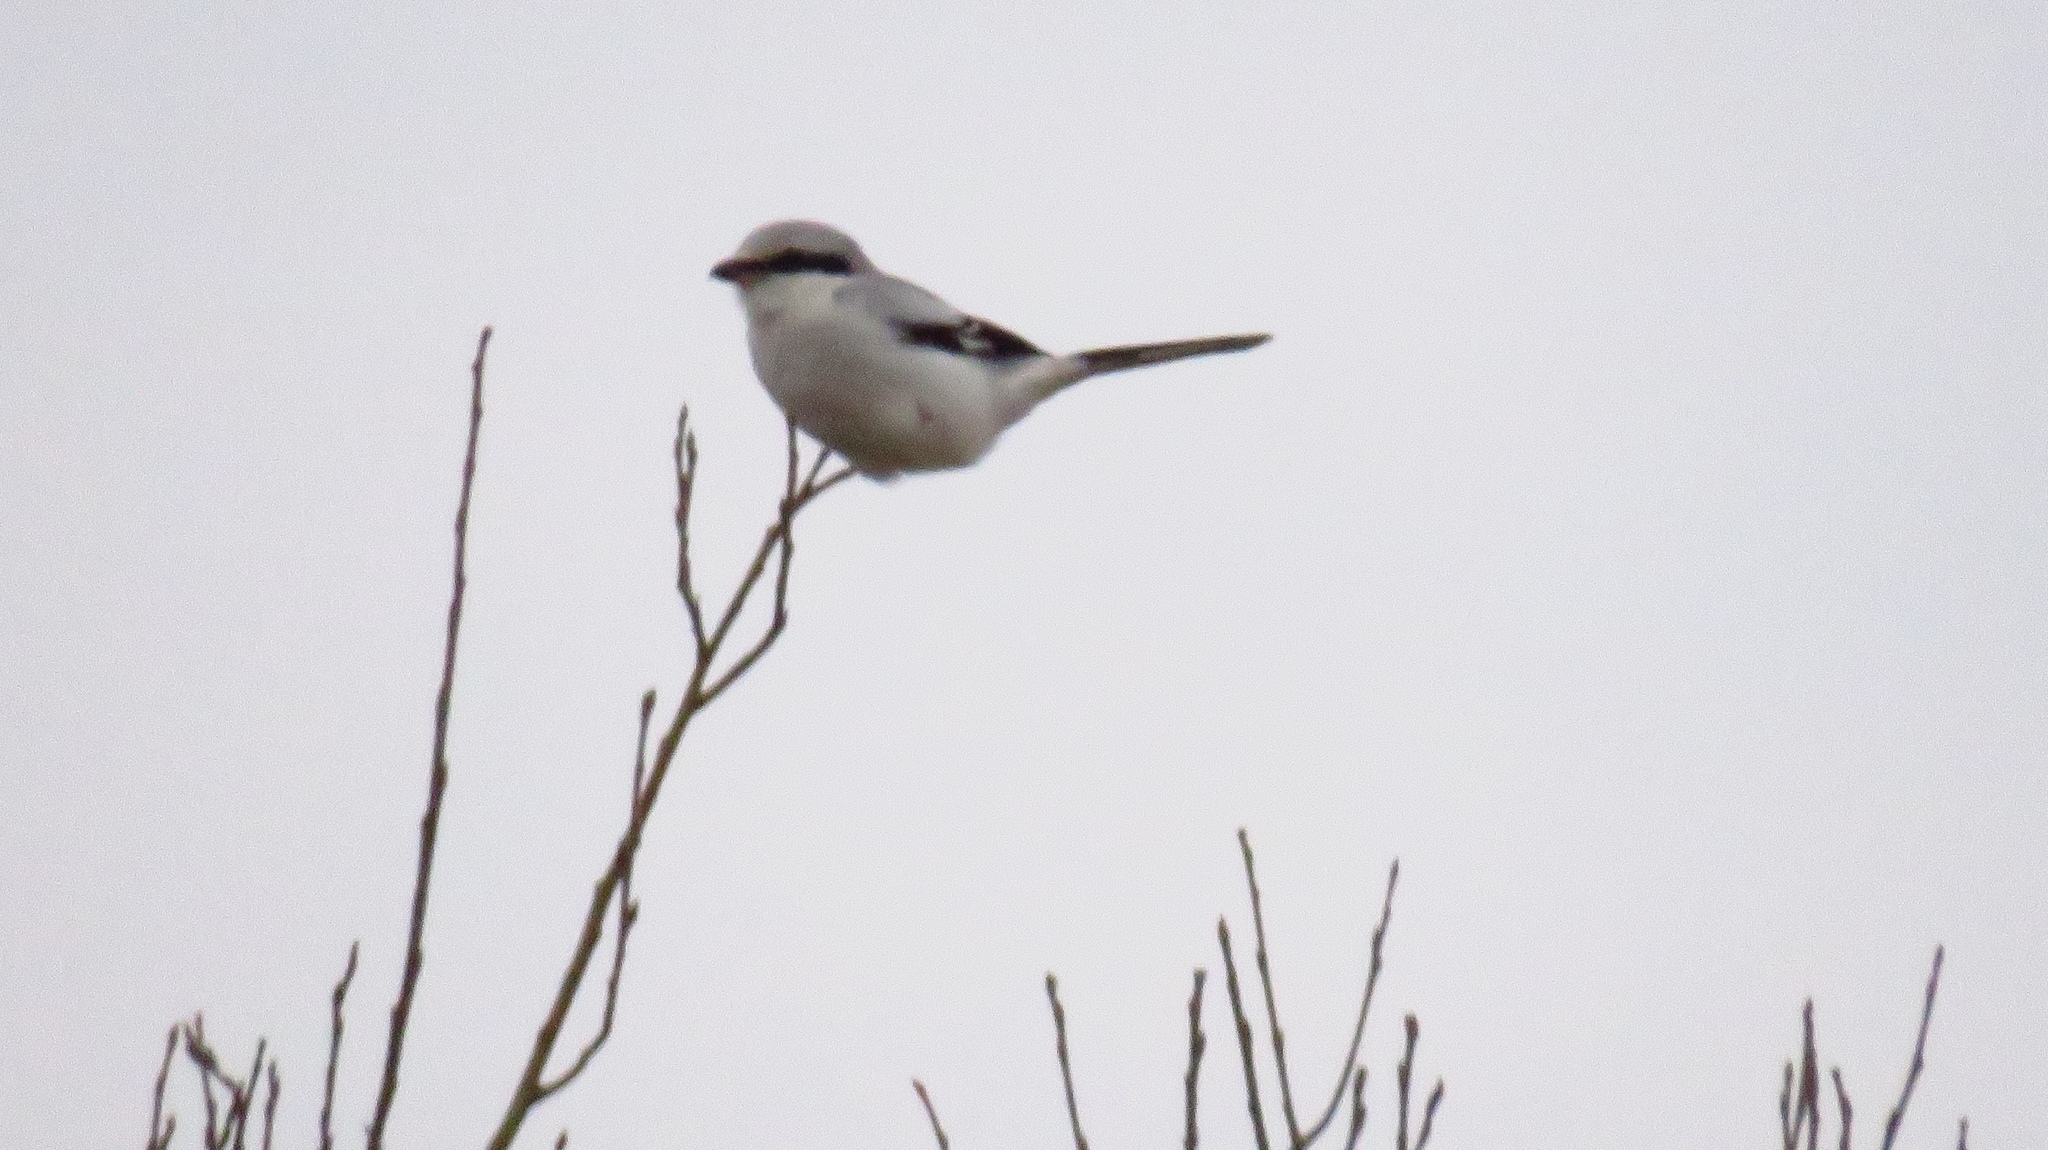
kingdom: Animalia
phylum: Chordata
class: Aves
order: Passeriformes
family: Laniidae
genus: Lanius
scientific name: Lanius excubitor
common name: Great grey shrike
